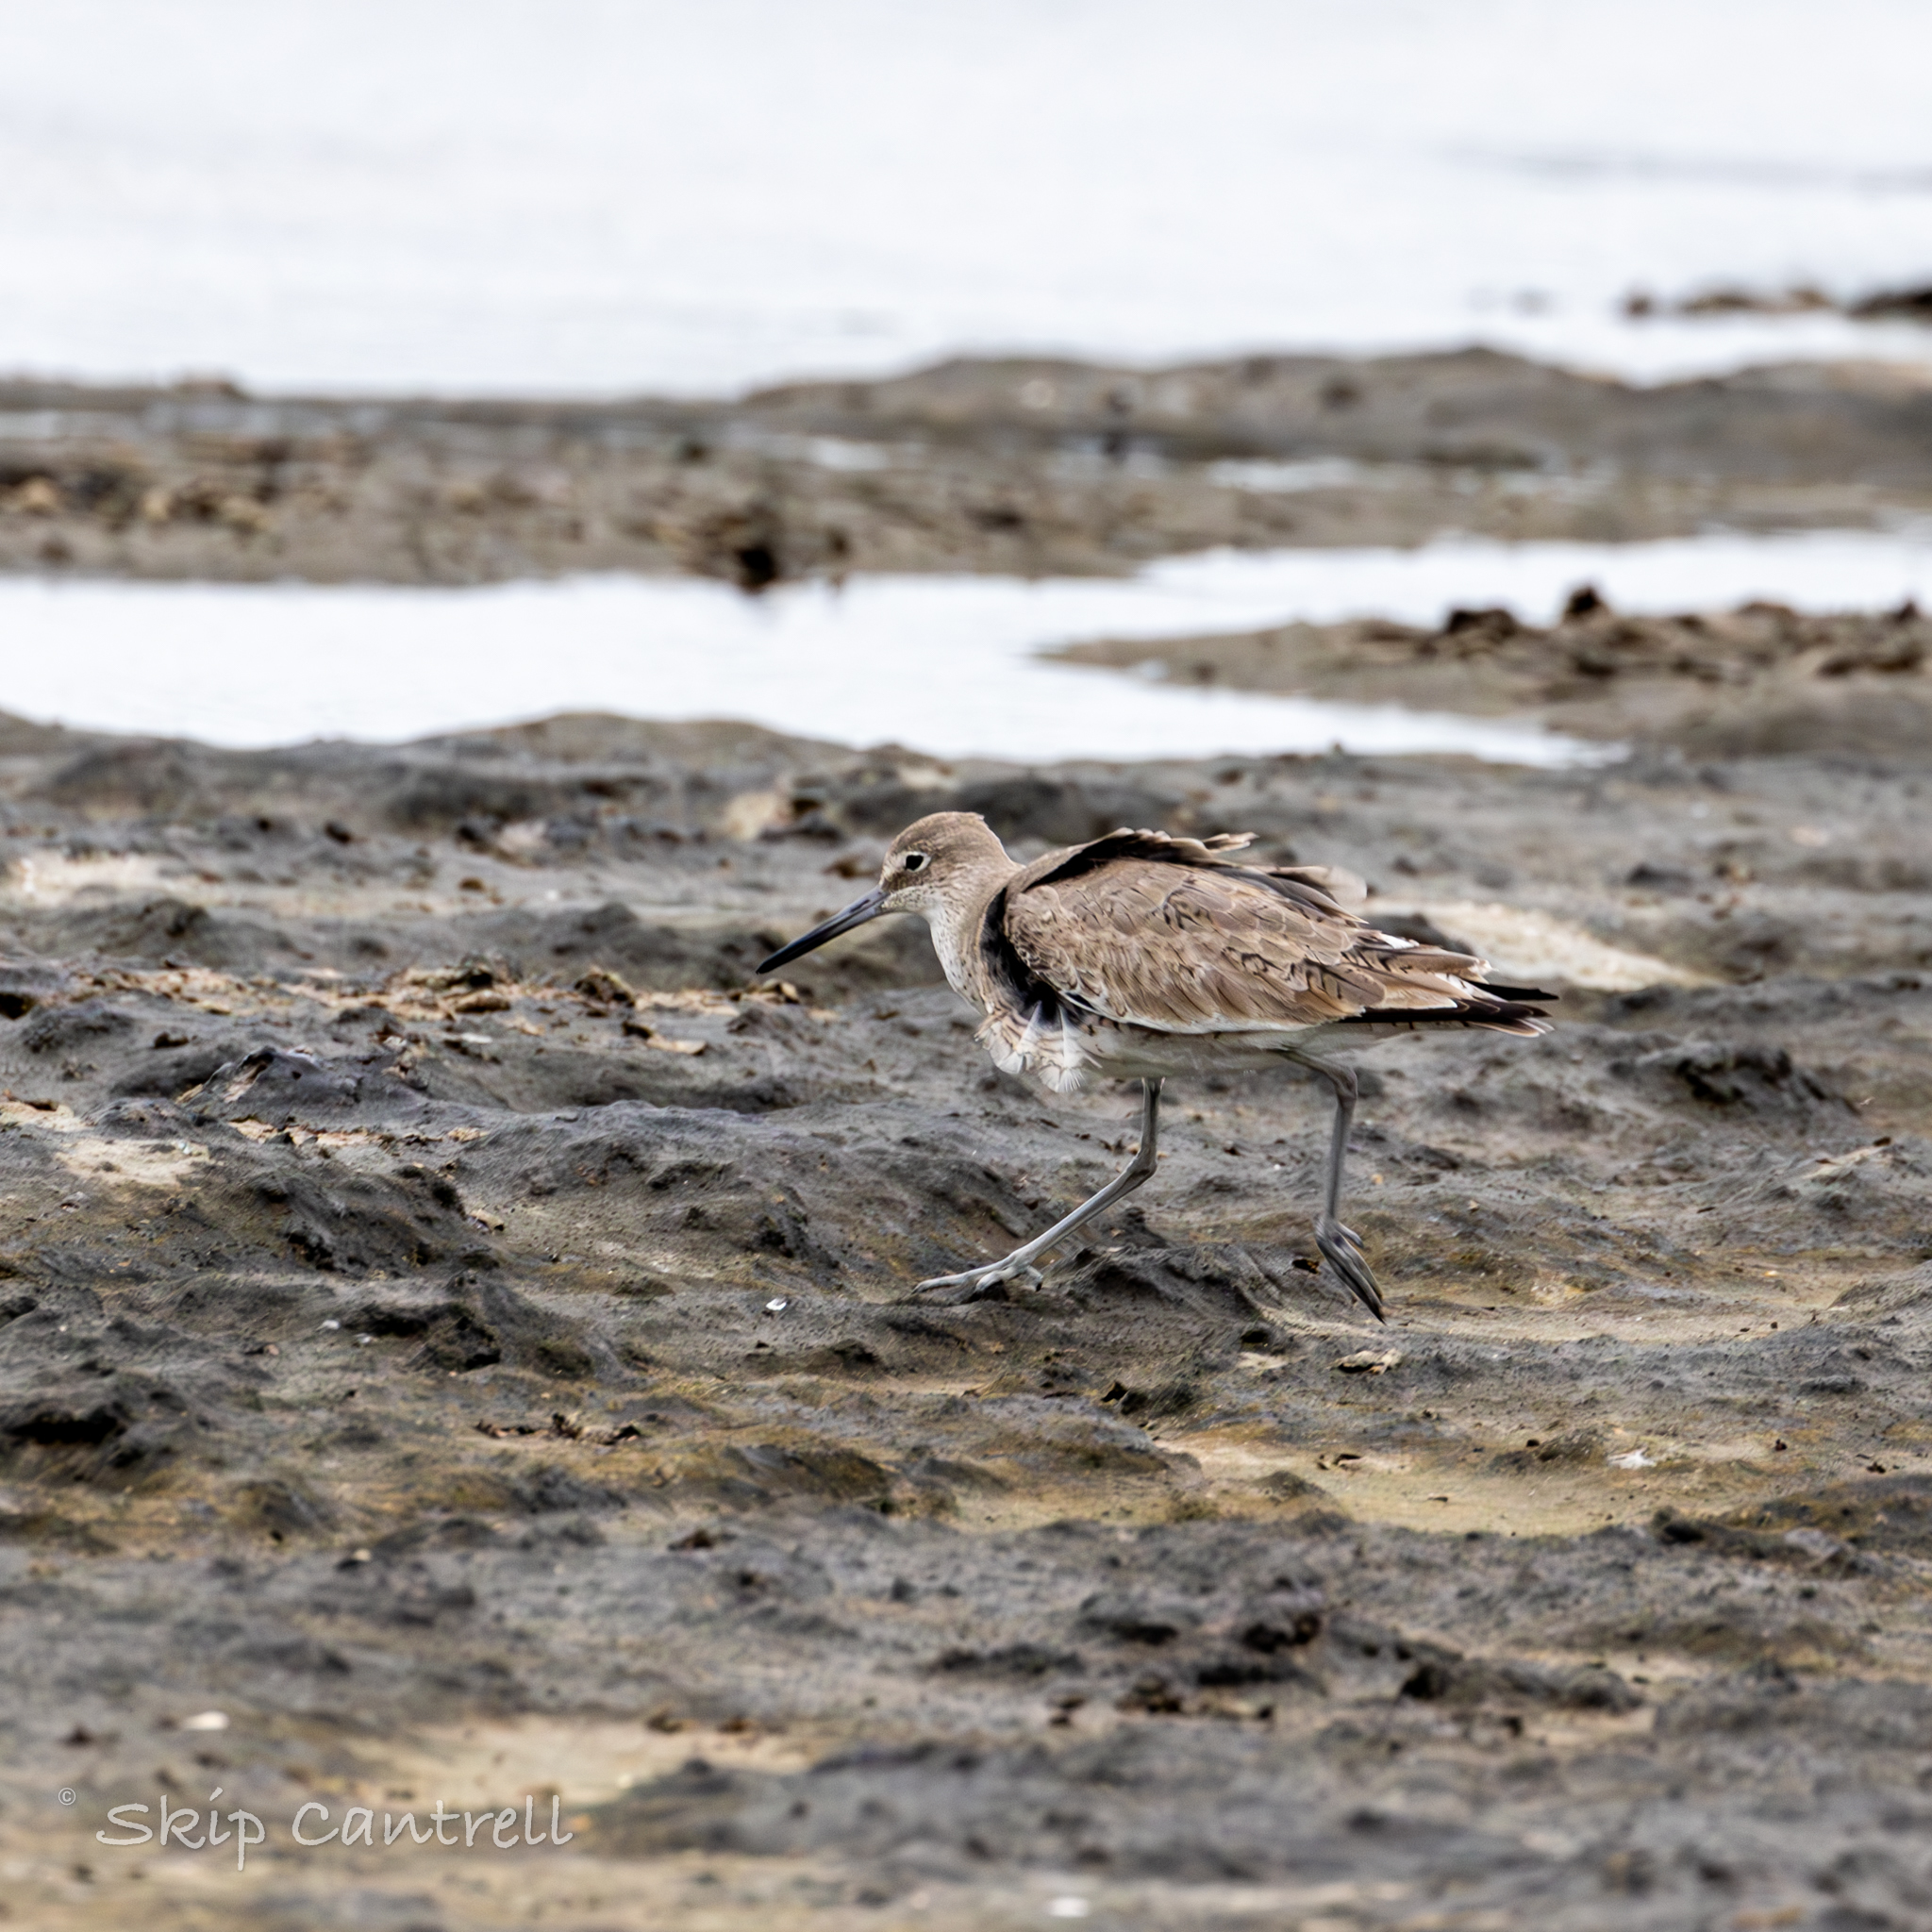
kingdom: Animalia
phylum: Chordata
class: Aves
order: Charadriiformes
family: Scolopacidae
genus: Tringa
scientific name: Tringa semipalmata
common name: Willet
